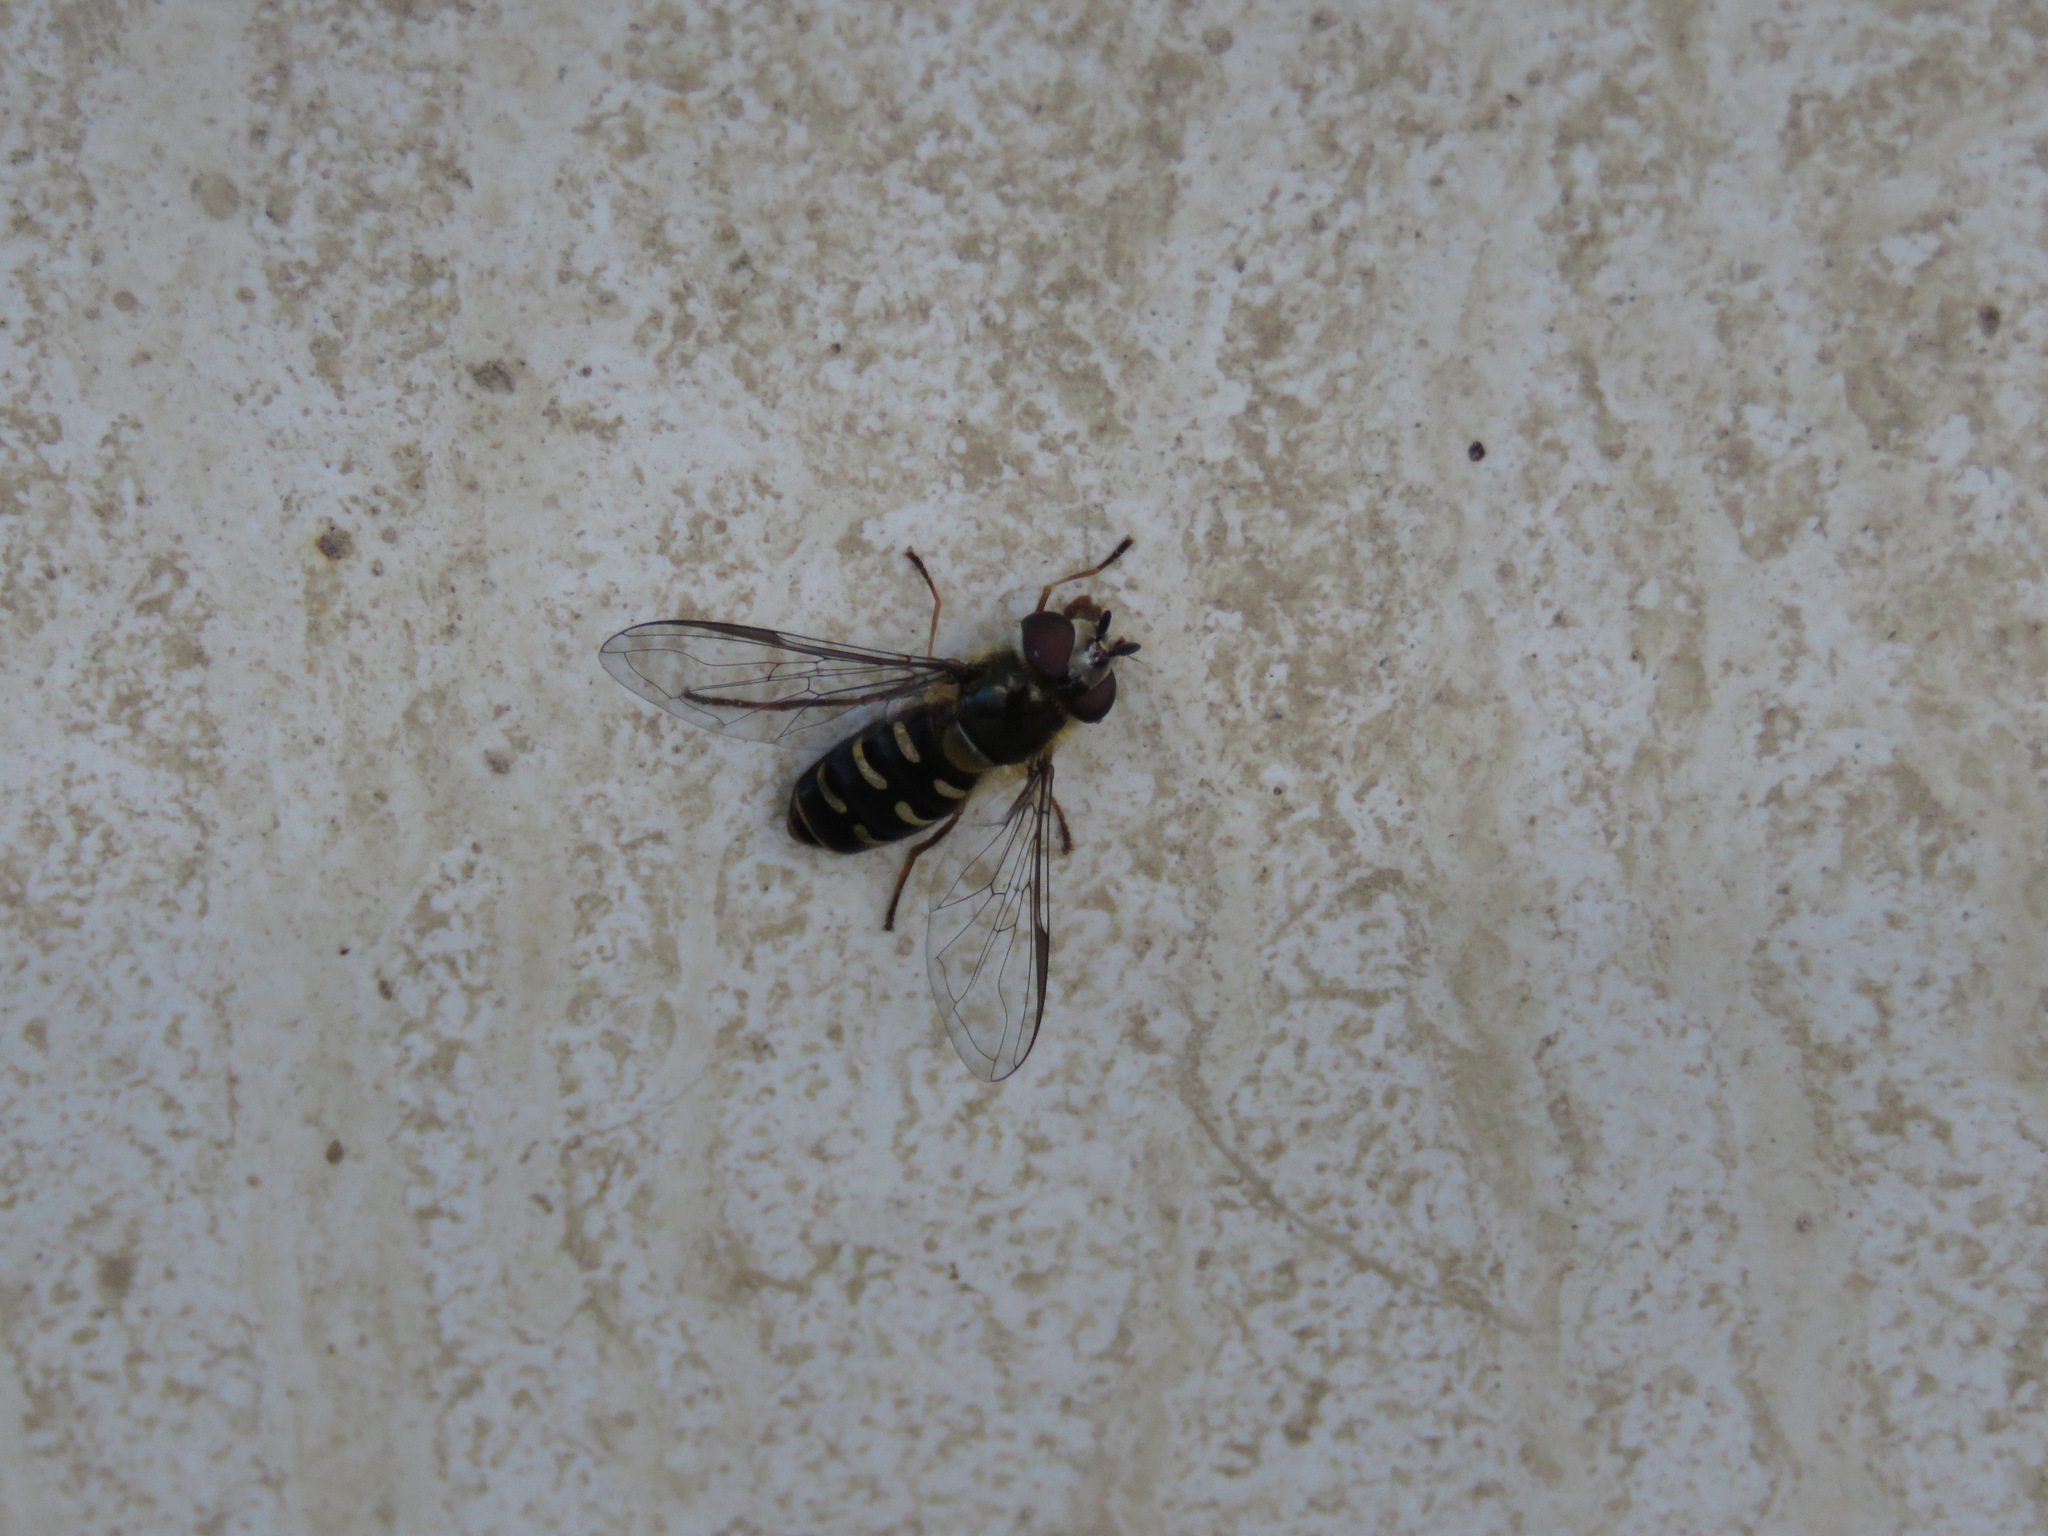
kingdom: Animalia
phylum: Arthropoda
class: Insecta
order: Diptera
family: Syrphidae
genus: Lapposyrphus
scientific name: Lapposyrphus lapponicus
